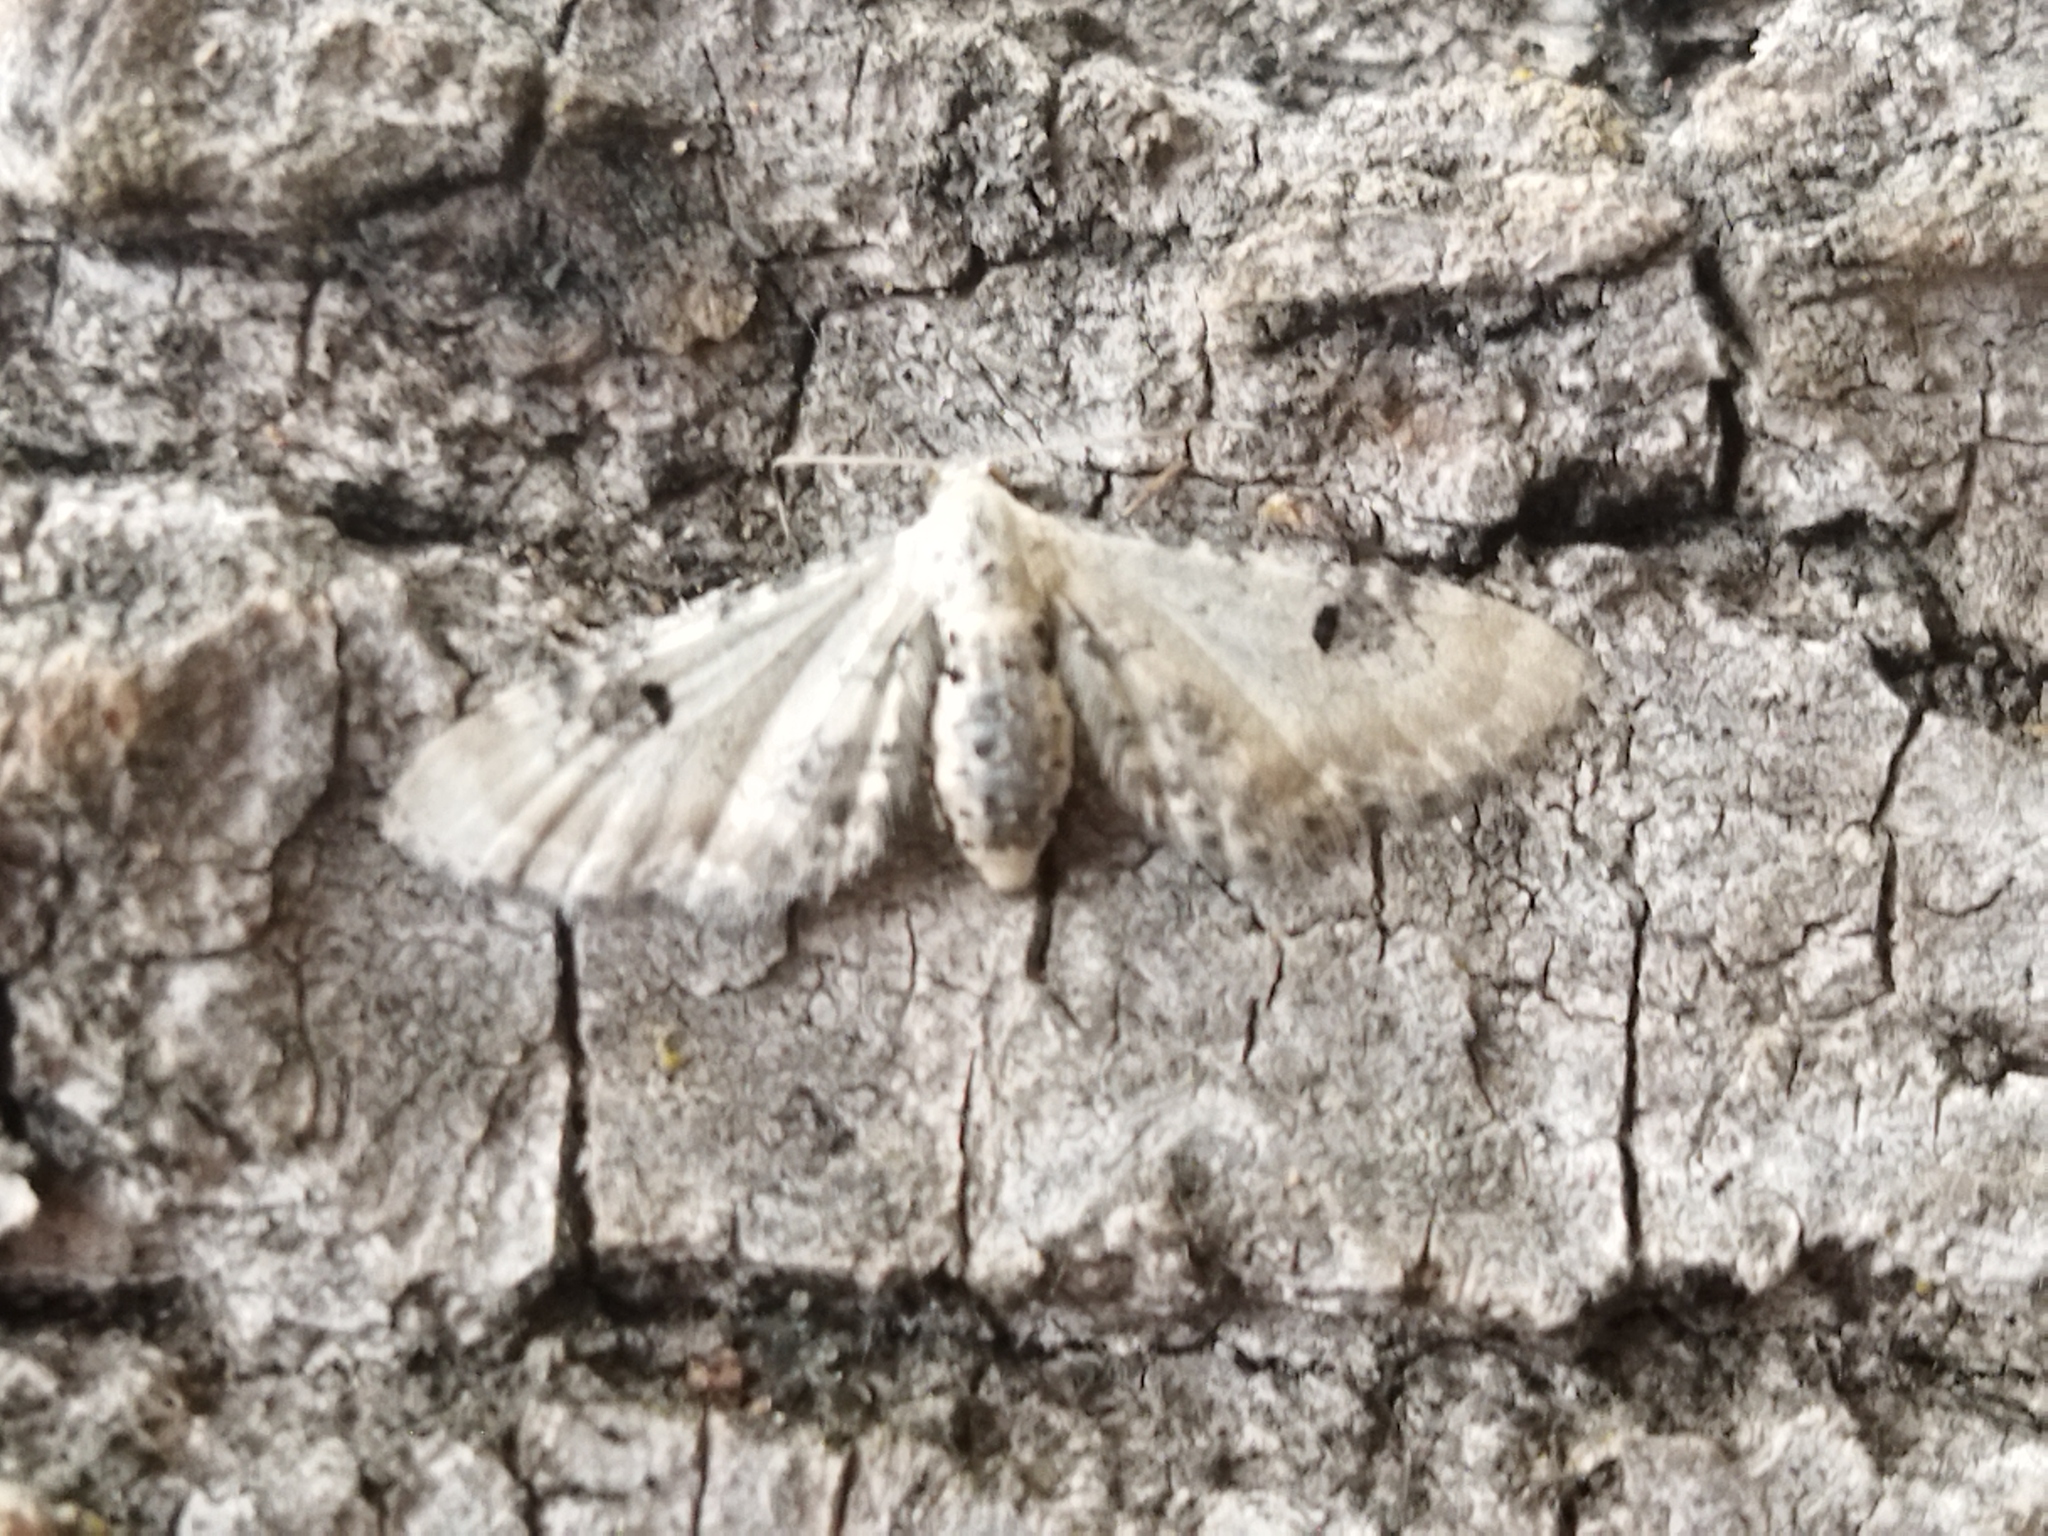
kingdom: Animalia
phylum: Arthropoda
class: Insecta
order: Lepidoptera
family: Geometridae
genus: Eupithecia
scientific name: Eupithecia centaureata
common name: Lime-speck pug
